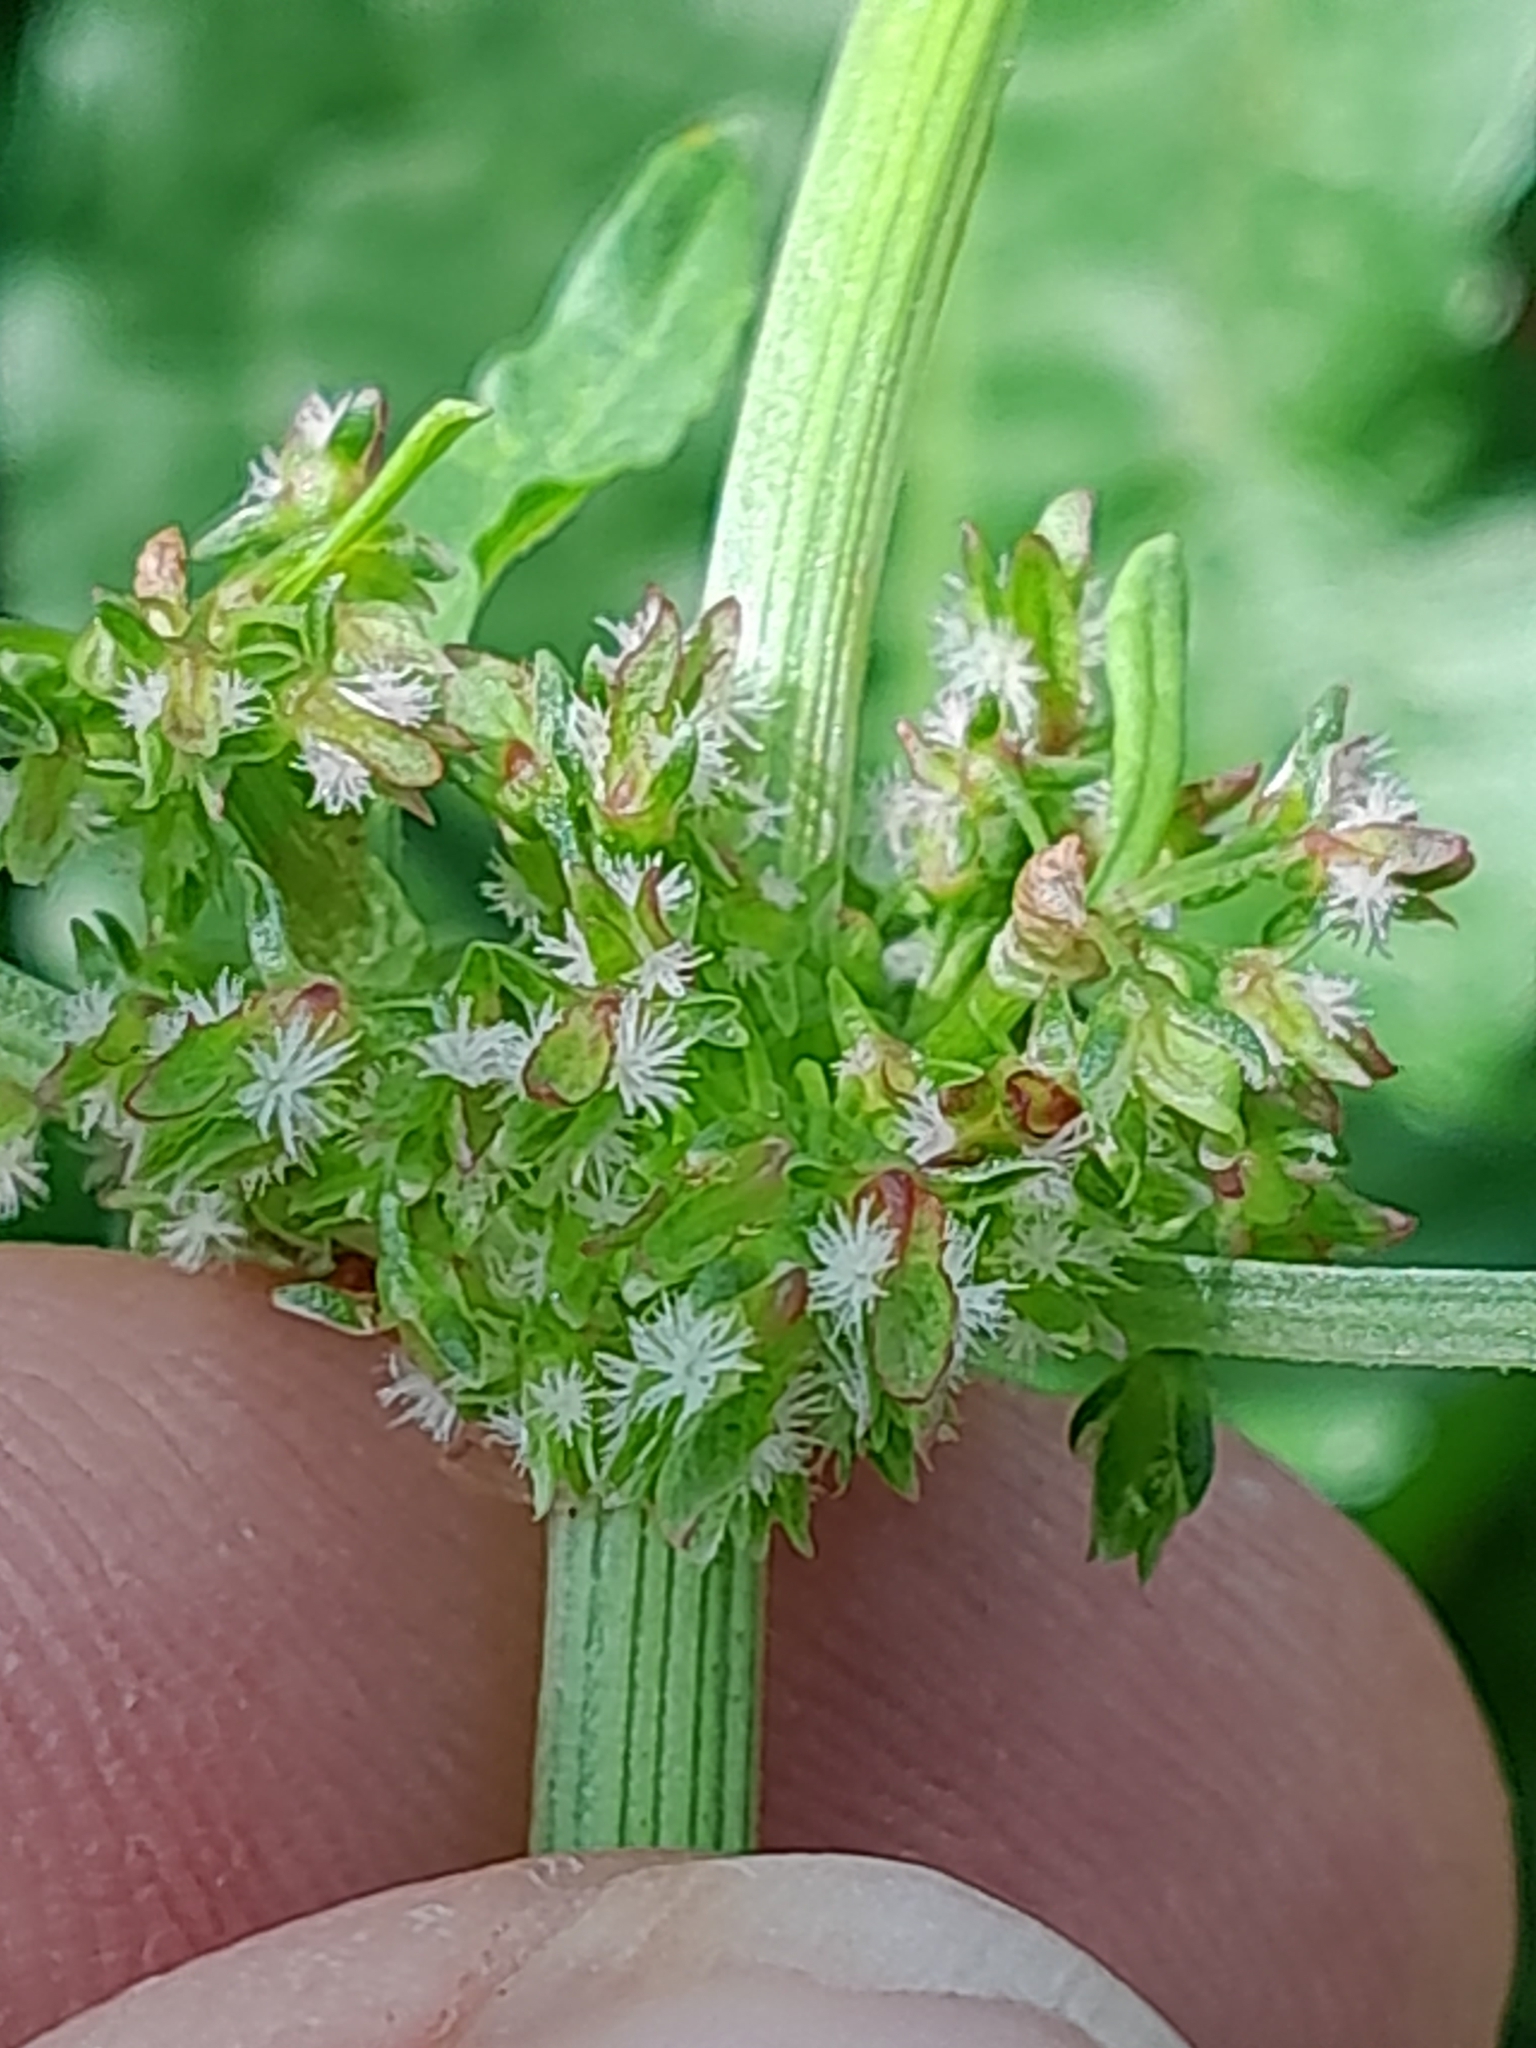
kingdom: Plantae
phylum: Tracheophyta
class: Magnoliopsida
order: Caryophyllales
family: Polygonaceae
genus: Rumex
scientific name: Rumex obtusifolius
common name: Bitter dock
